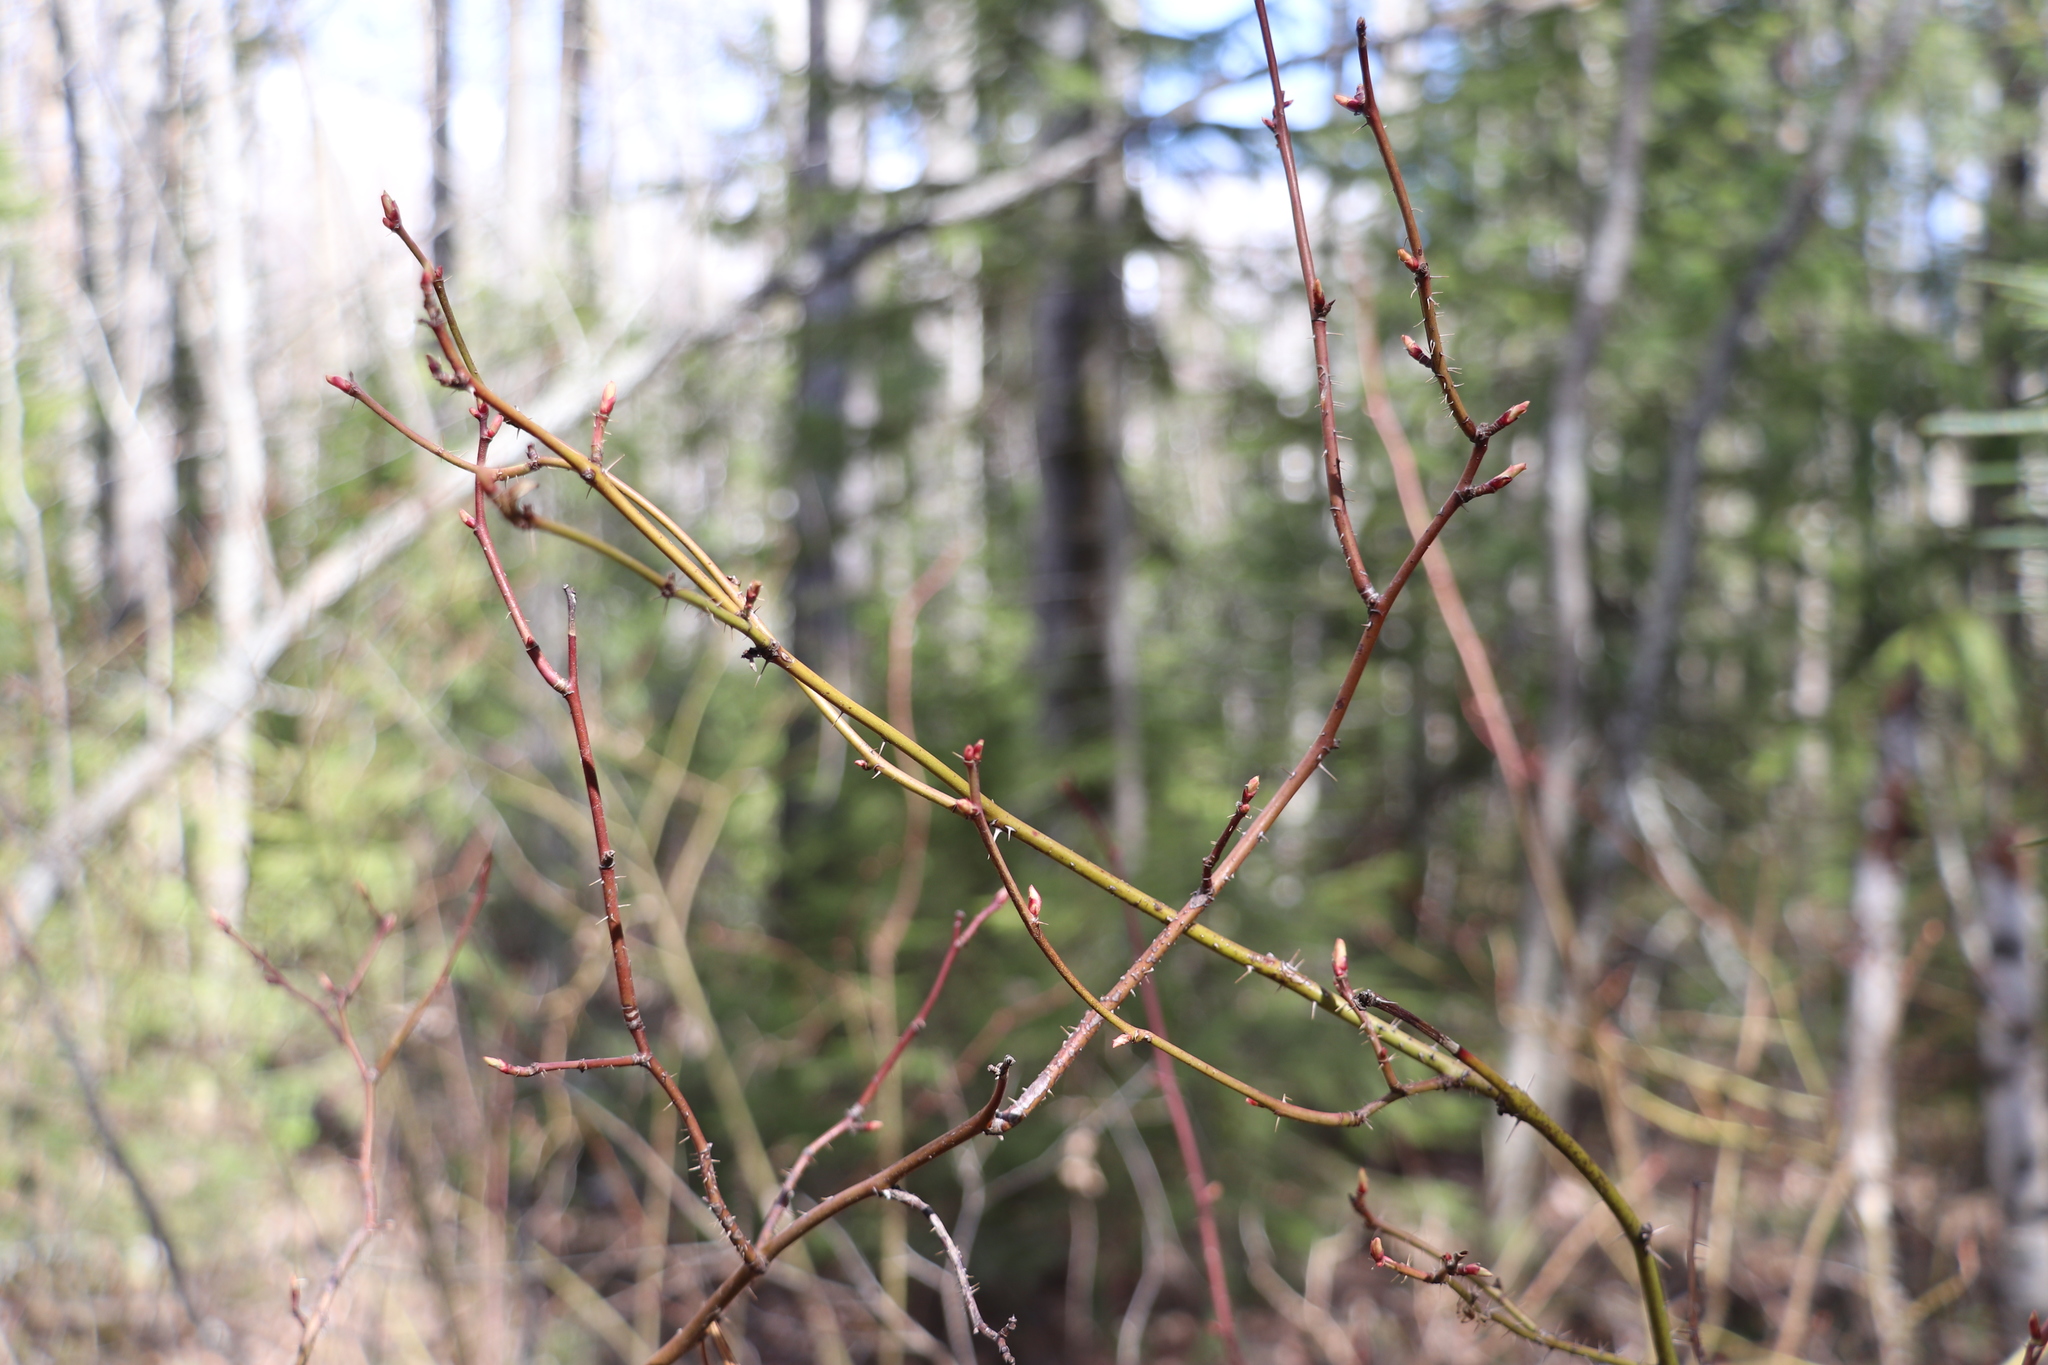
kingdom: Plantae
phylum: Tracheophyta
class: Magnoliopsida
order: Rosales
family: Rosaceae
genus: Rosa
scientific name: Rosa acicularis
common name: Prickly rose
